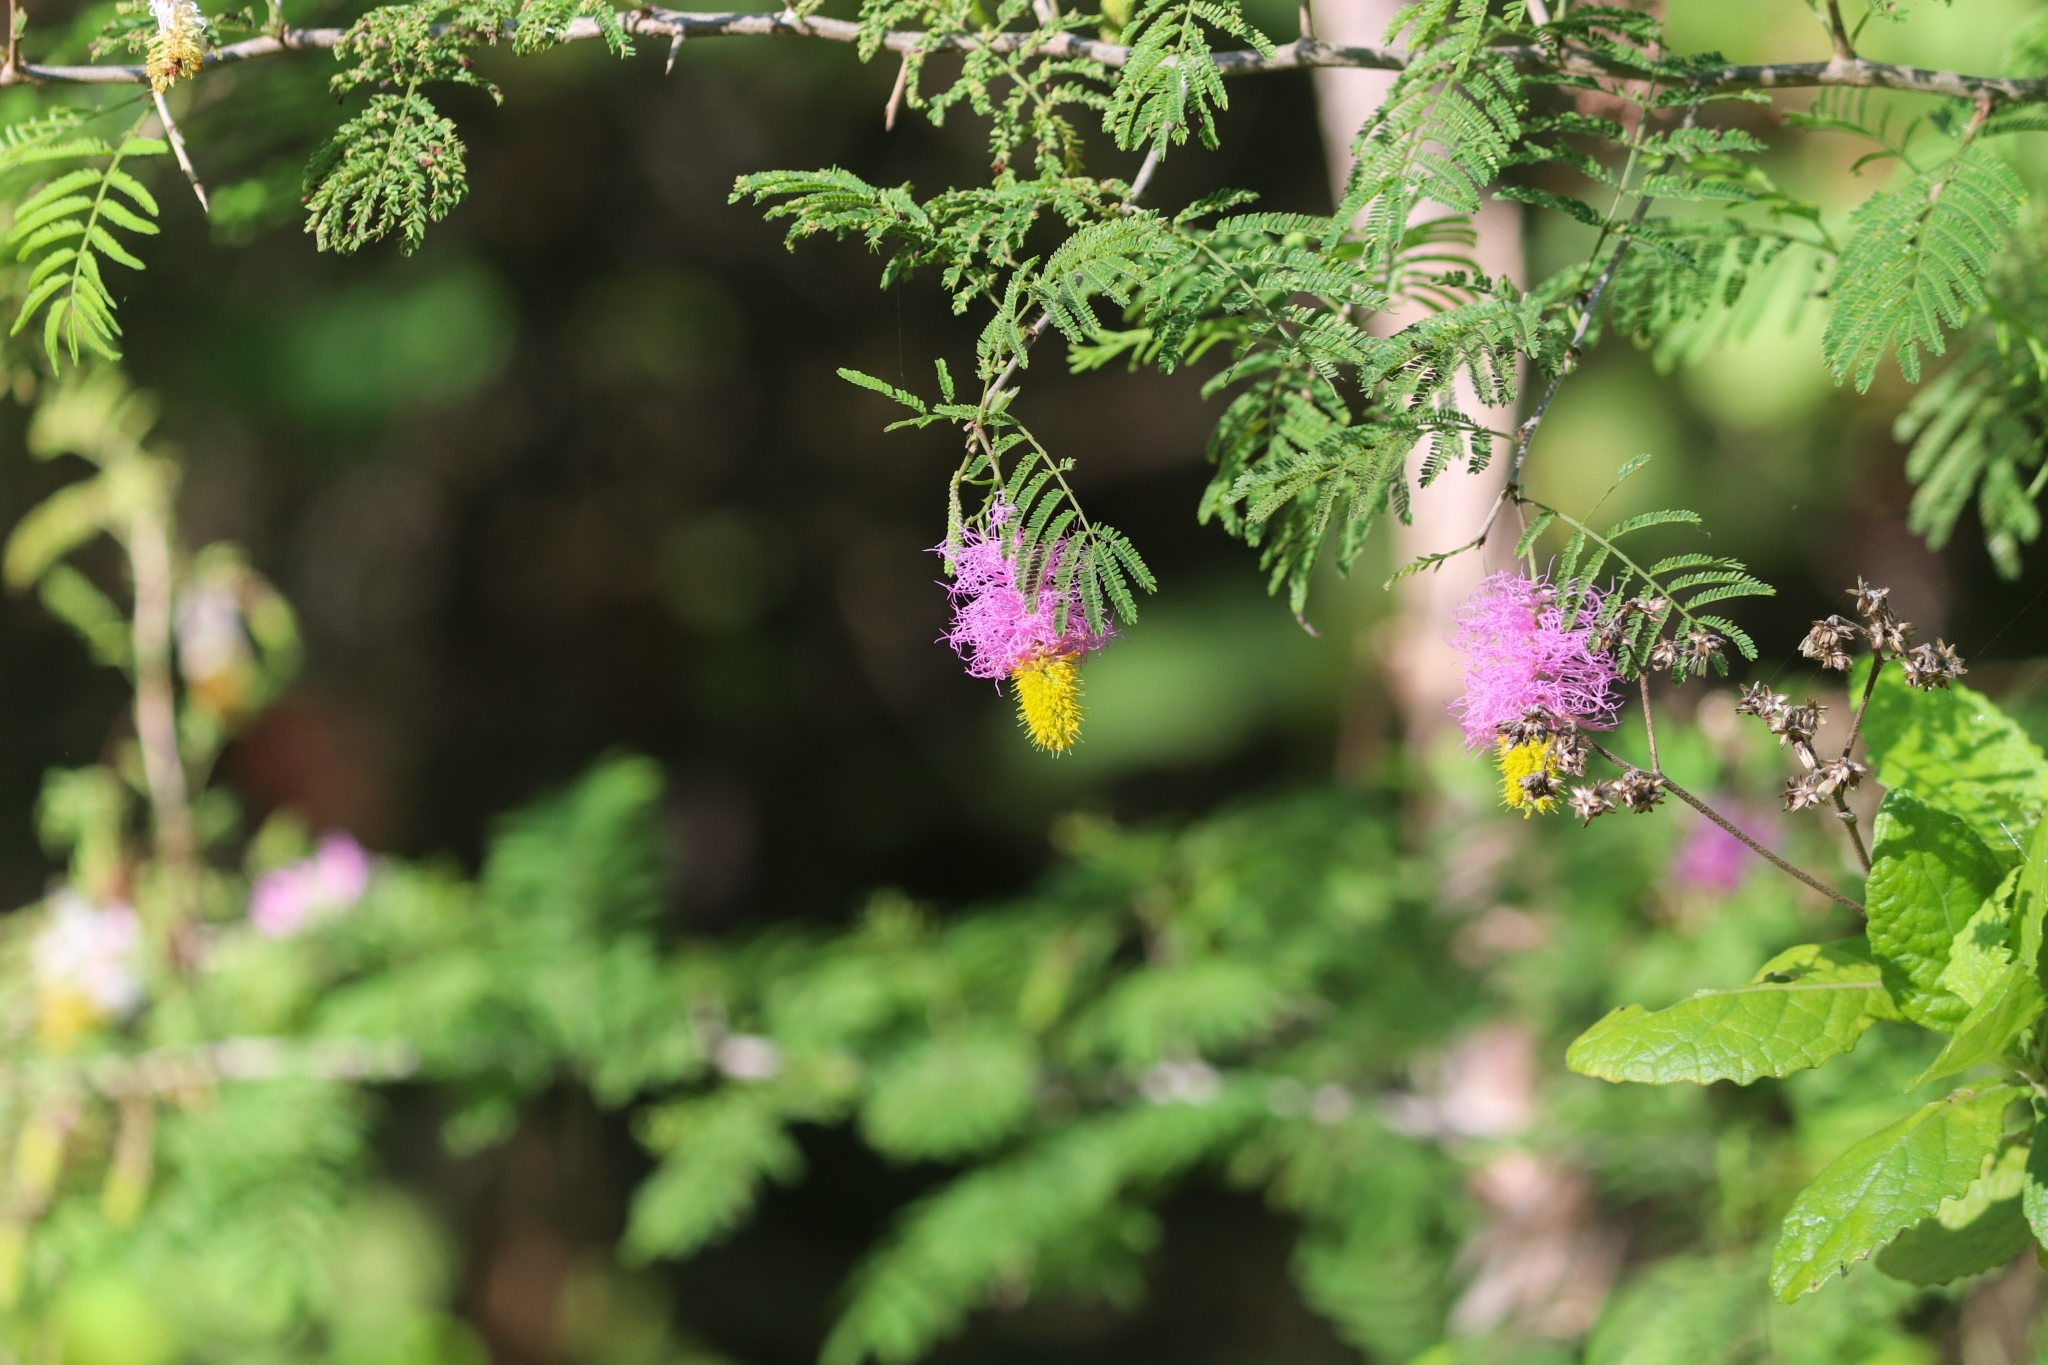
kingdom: Plantae
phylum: Tracheophyta
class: Magnoliopsida
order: Fabales
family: Fabaceae
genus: Dichrostachys
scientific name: Dichrostachys cinerea
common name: Sicklebush
